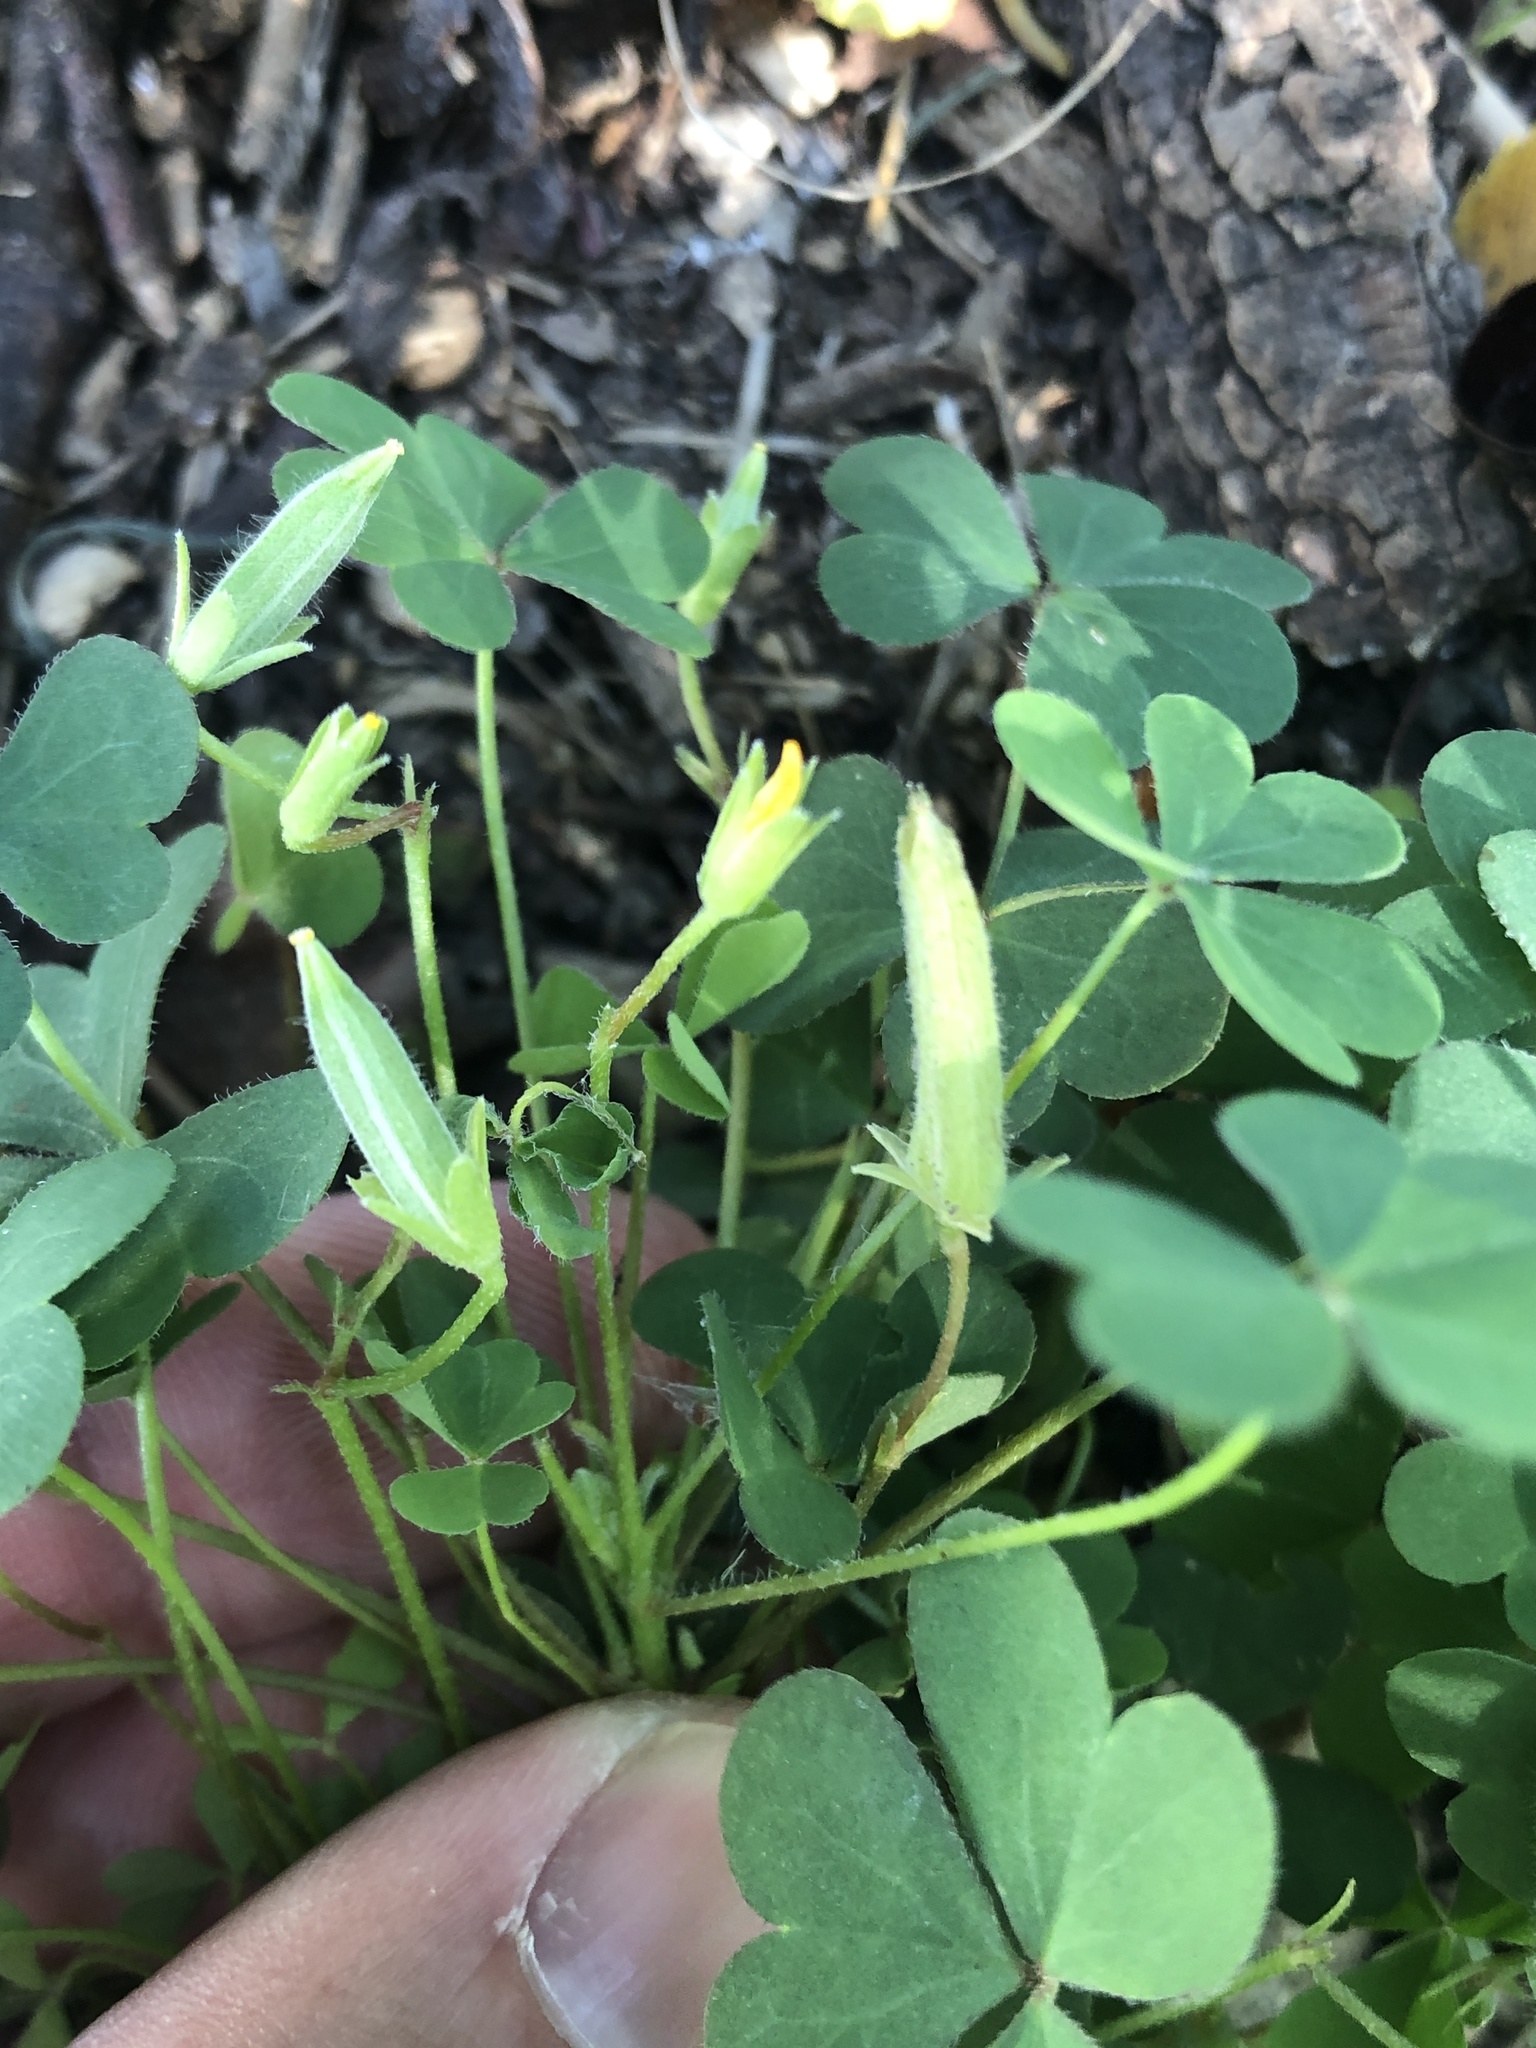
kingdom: Plantae
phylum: Tracheophyta
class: Magnoliopsida
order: Oxalidales
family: Oxalidaceae
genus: Oxalis
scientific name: Oxalis dillenii
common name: Sussex yellow-sorrel
